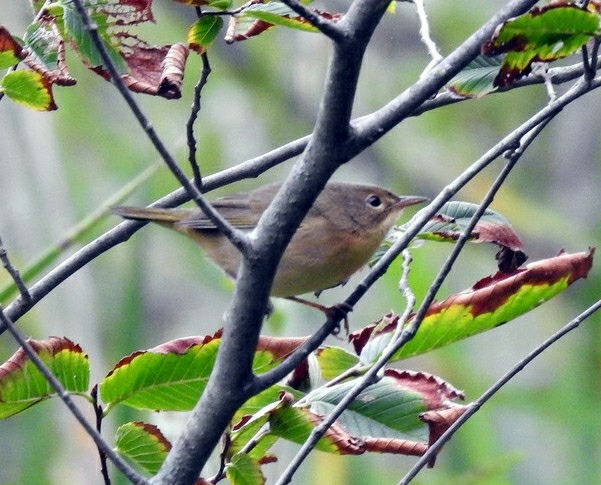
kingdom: Animalia
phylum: Chordata
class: Aves
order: Passeriformes
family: Parulidae
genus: Geothlypis
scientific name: Geothlypis trichas
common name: Common yellowthroat
